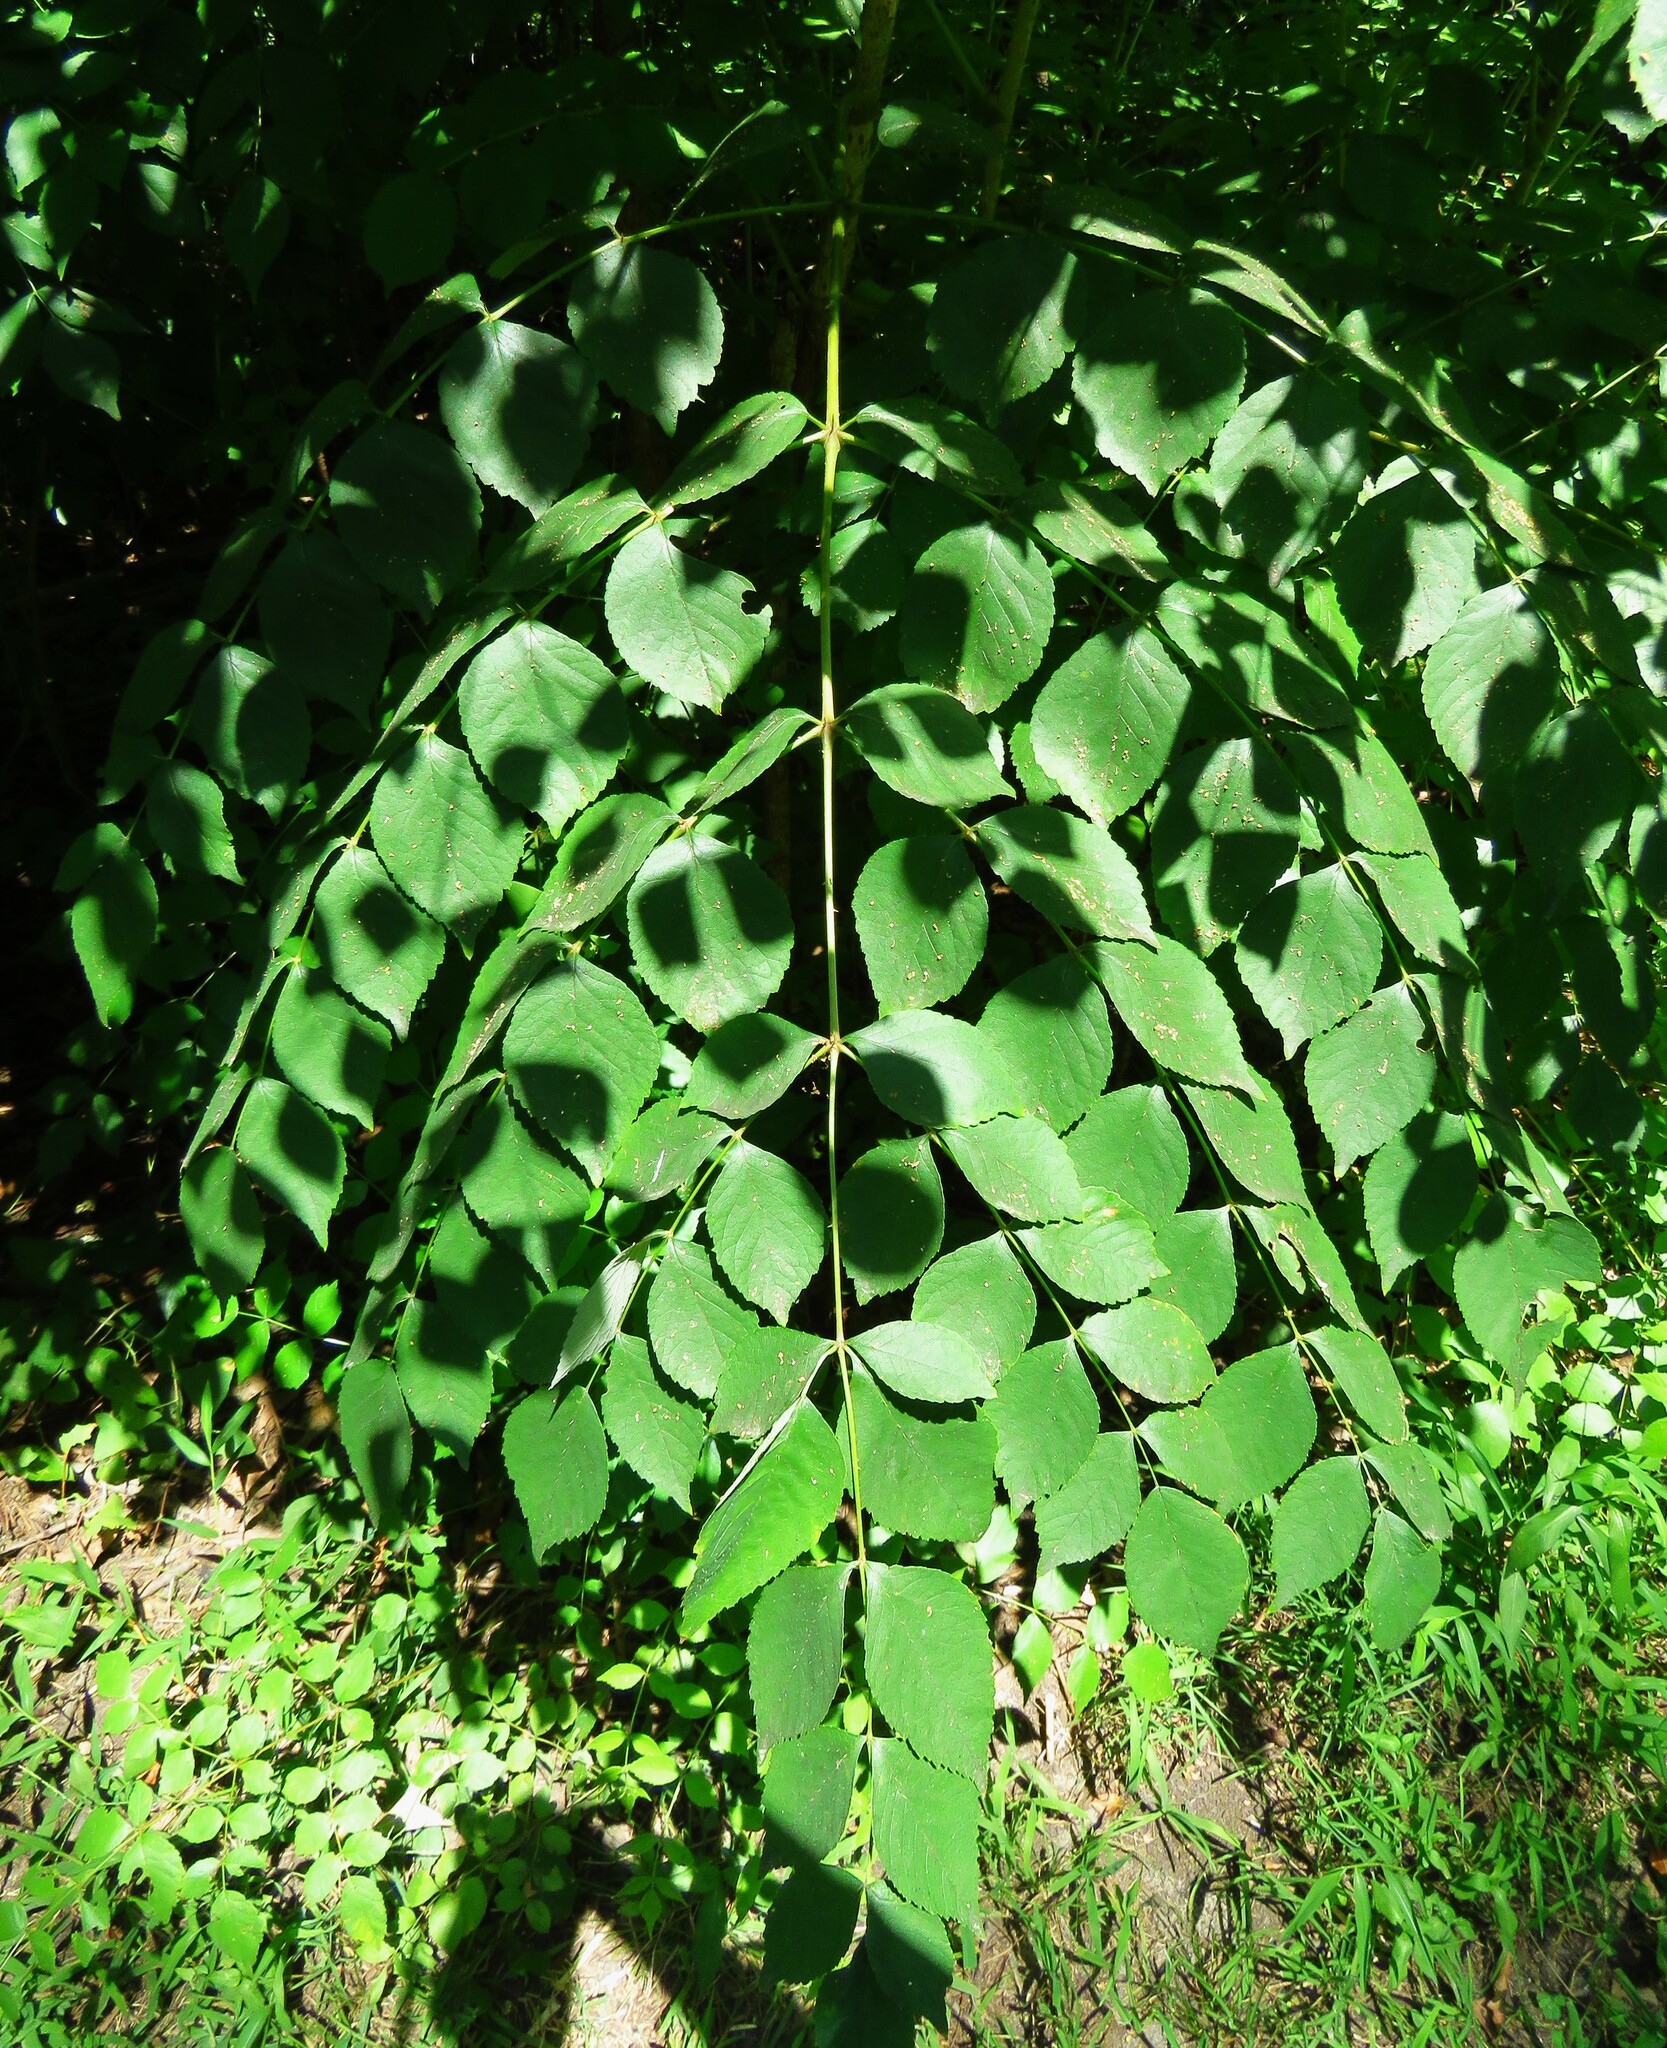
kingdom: Plantae
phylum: Tracheophyta
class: Magnoliopsida
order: Apiales
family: Araliaceae
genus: Aralia
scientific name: Aralia elata
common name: Japanese angelica-tree
